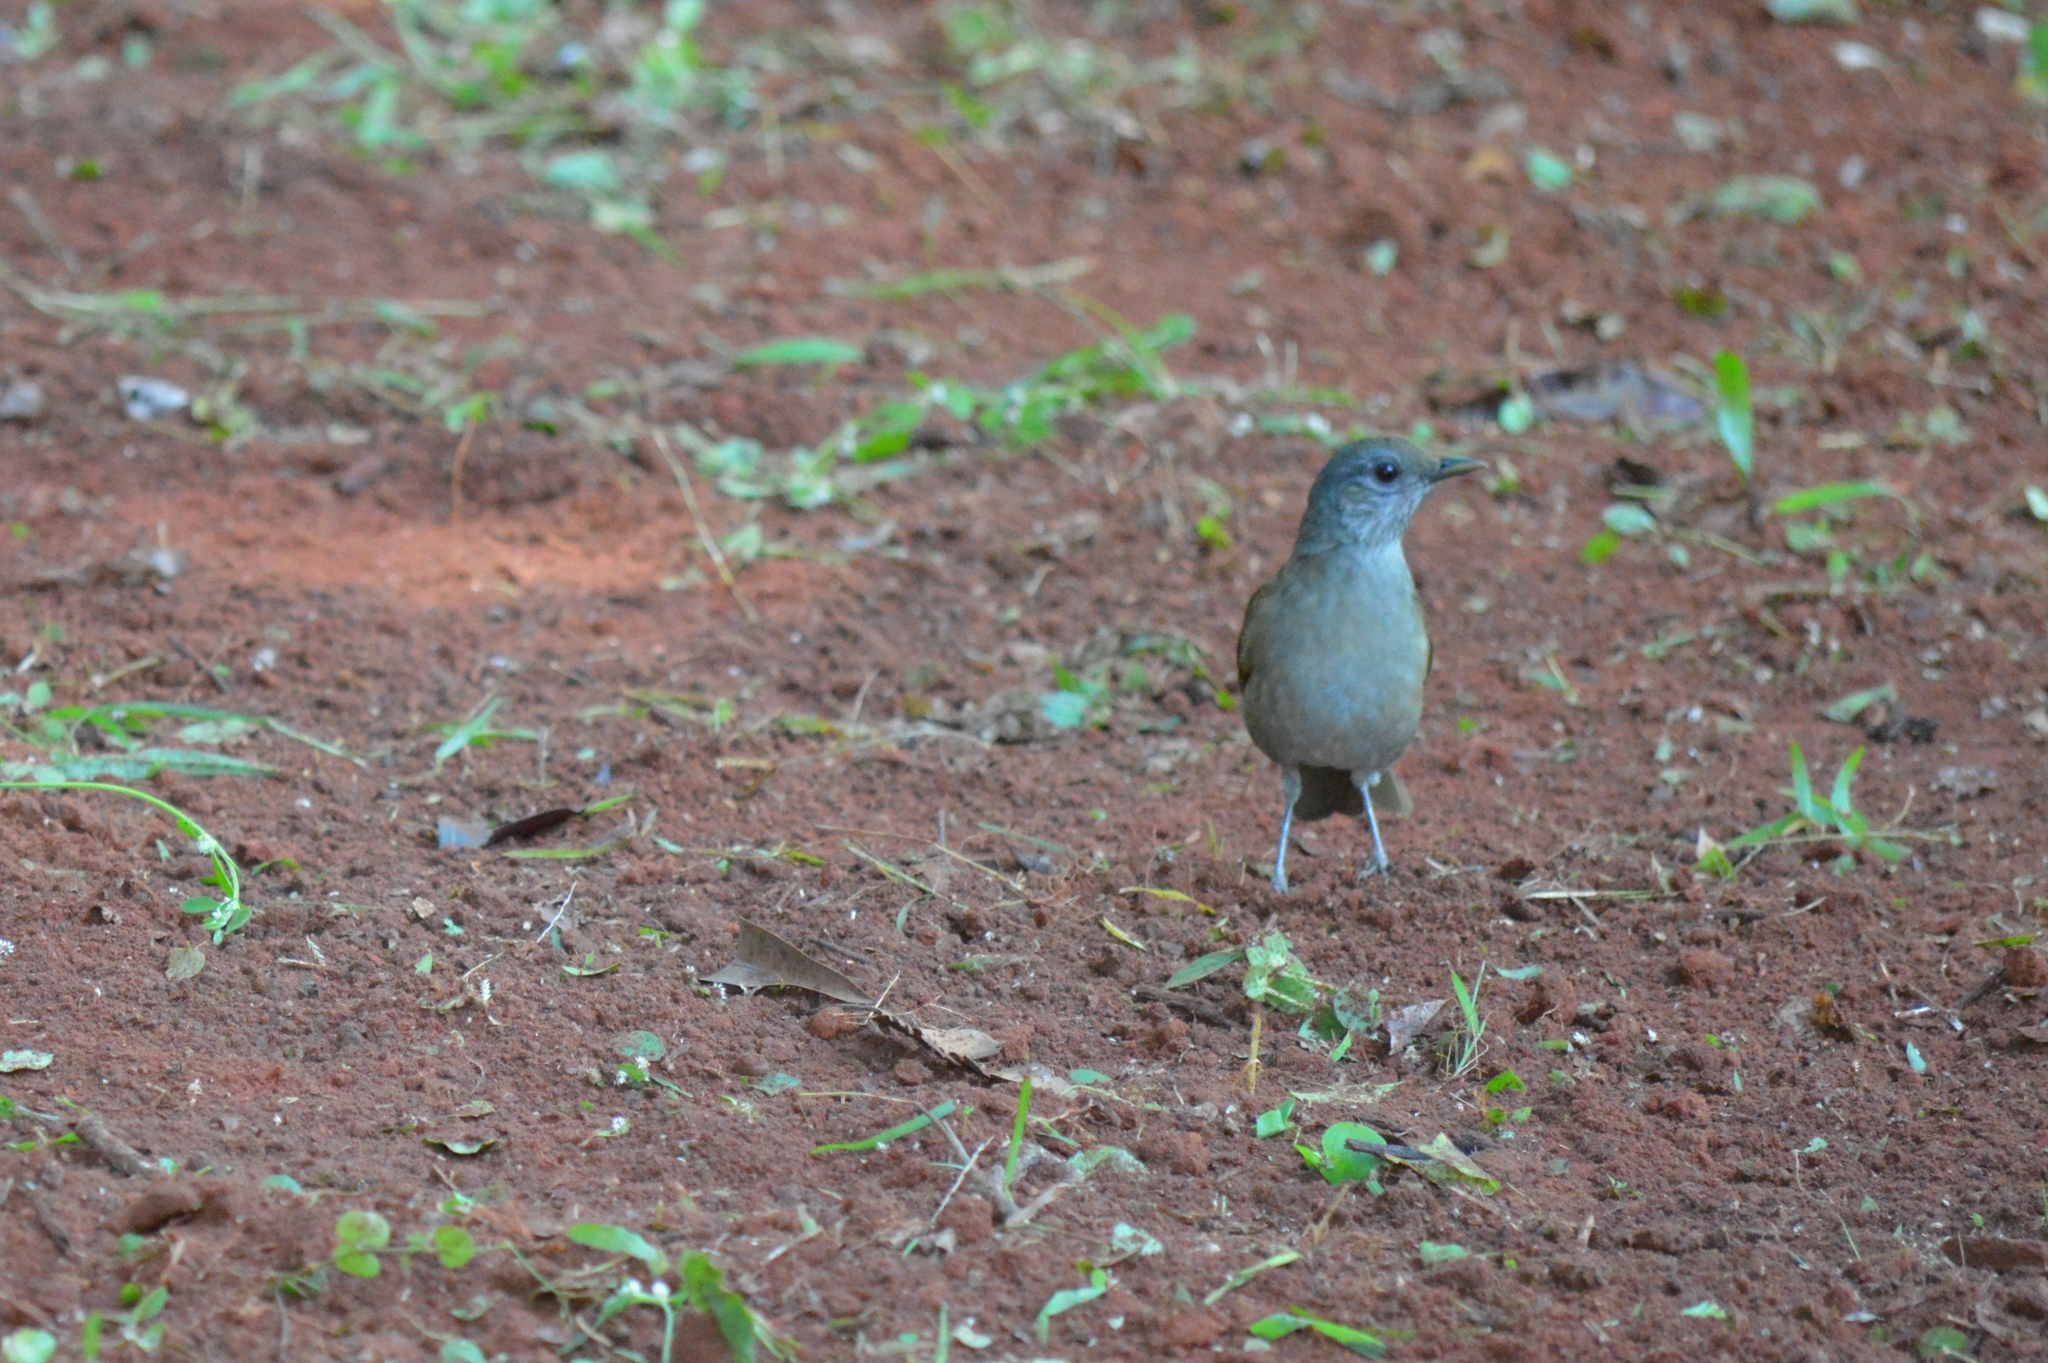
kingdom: Animalia
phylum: Chordata
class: Aves
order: Passeriformes
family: Turdidae
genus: Turdus
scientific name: Turdus leucomelas
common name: Pale-breasted thrush
